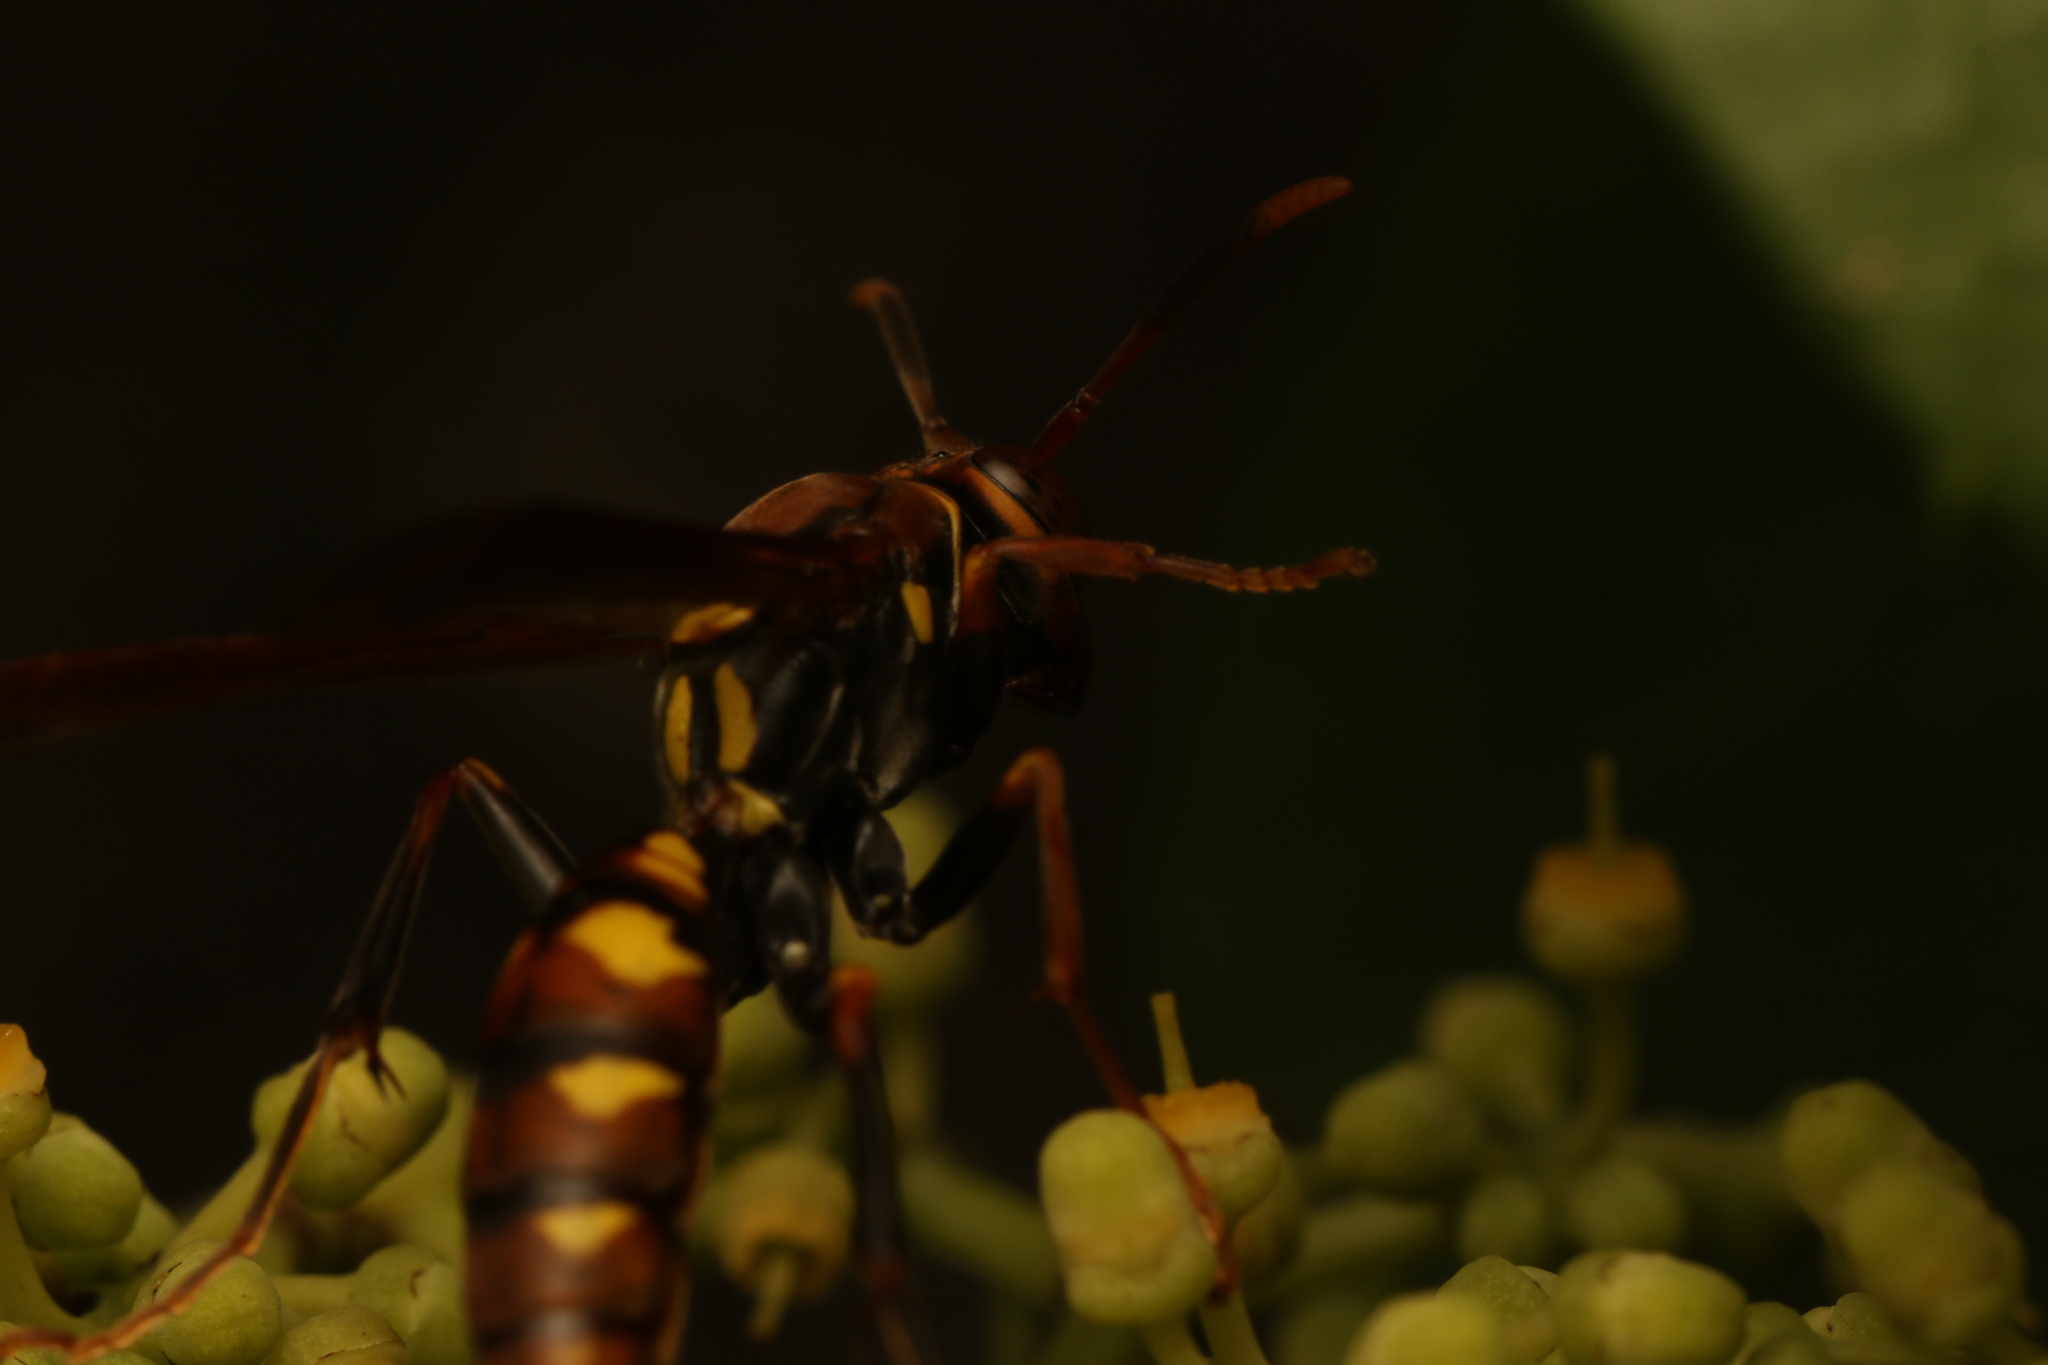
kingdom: Animalia
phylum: Arthropoda
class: Insecta
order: Hymenoptera
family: Eumenidae
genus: Polistes
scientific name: Polistes versicolor
